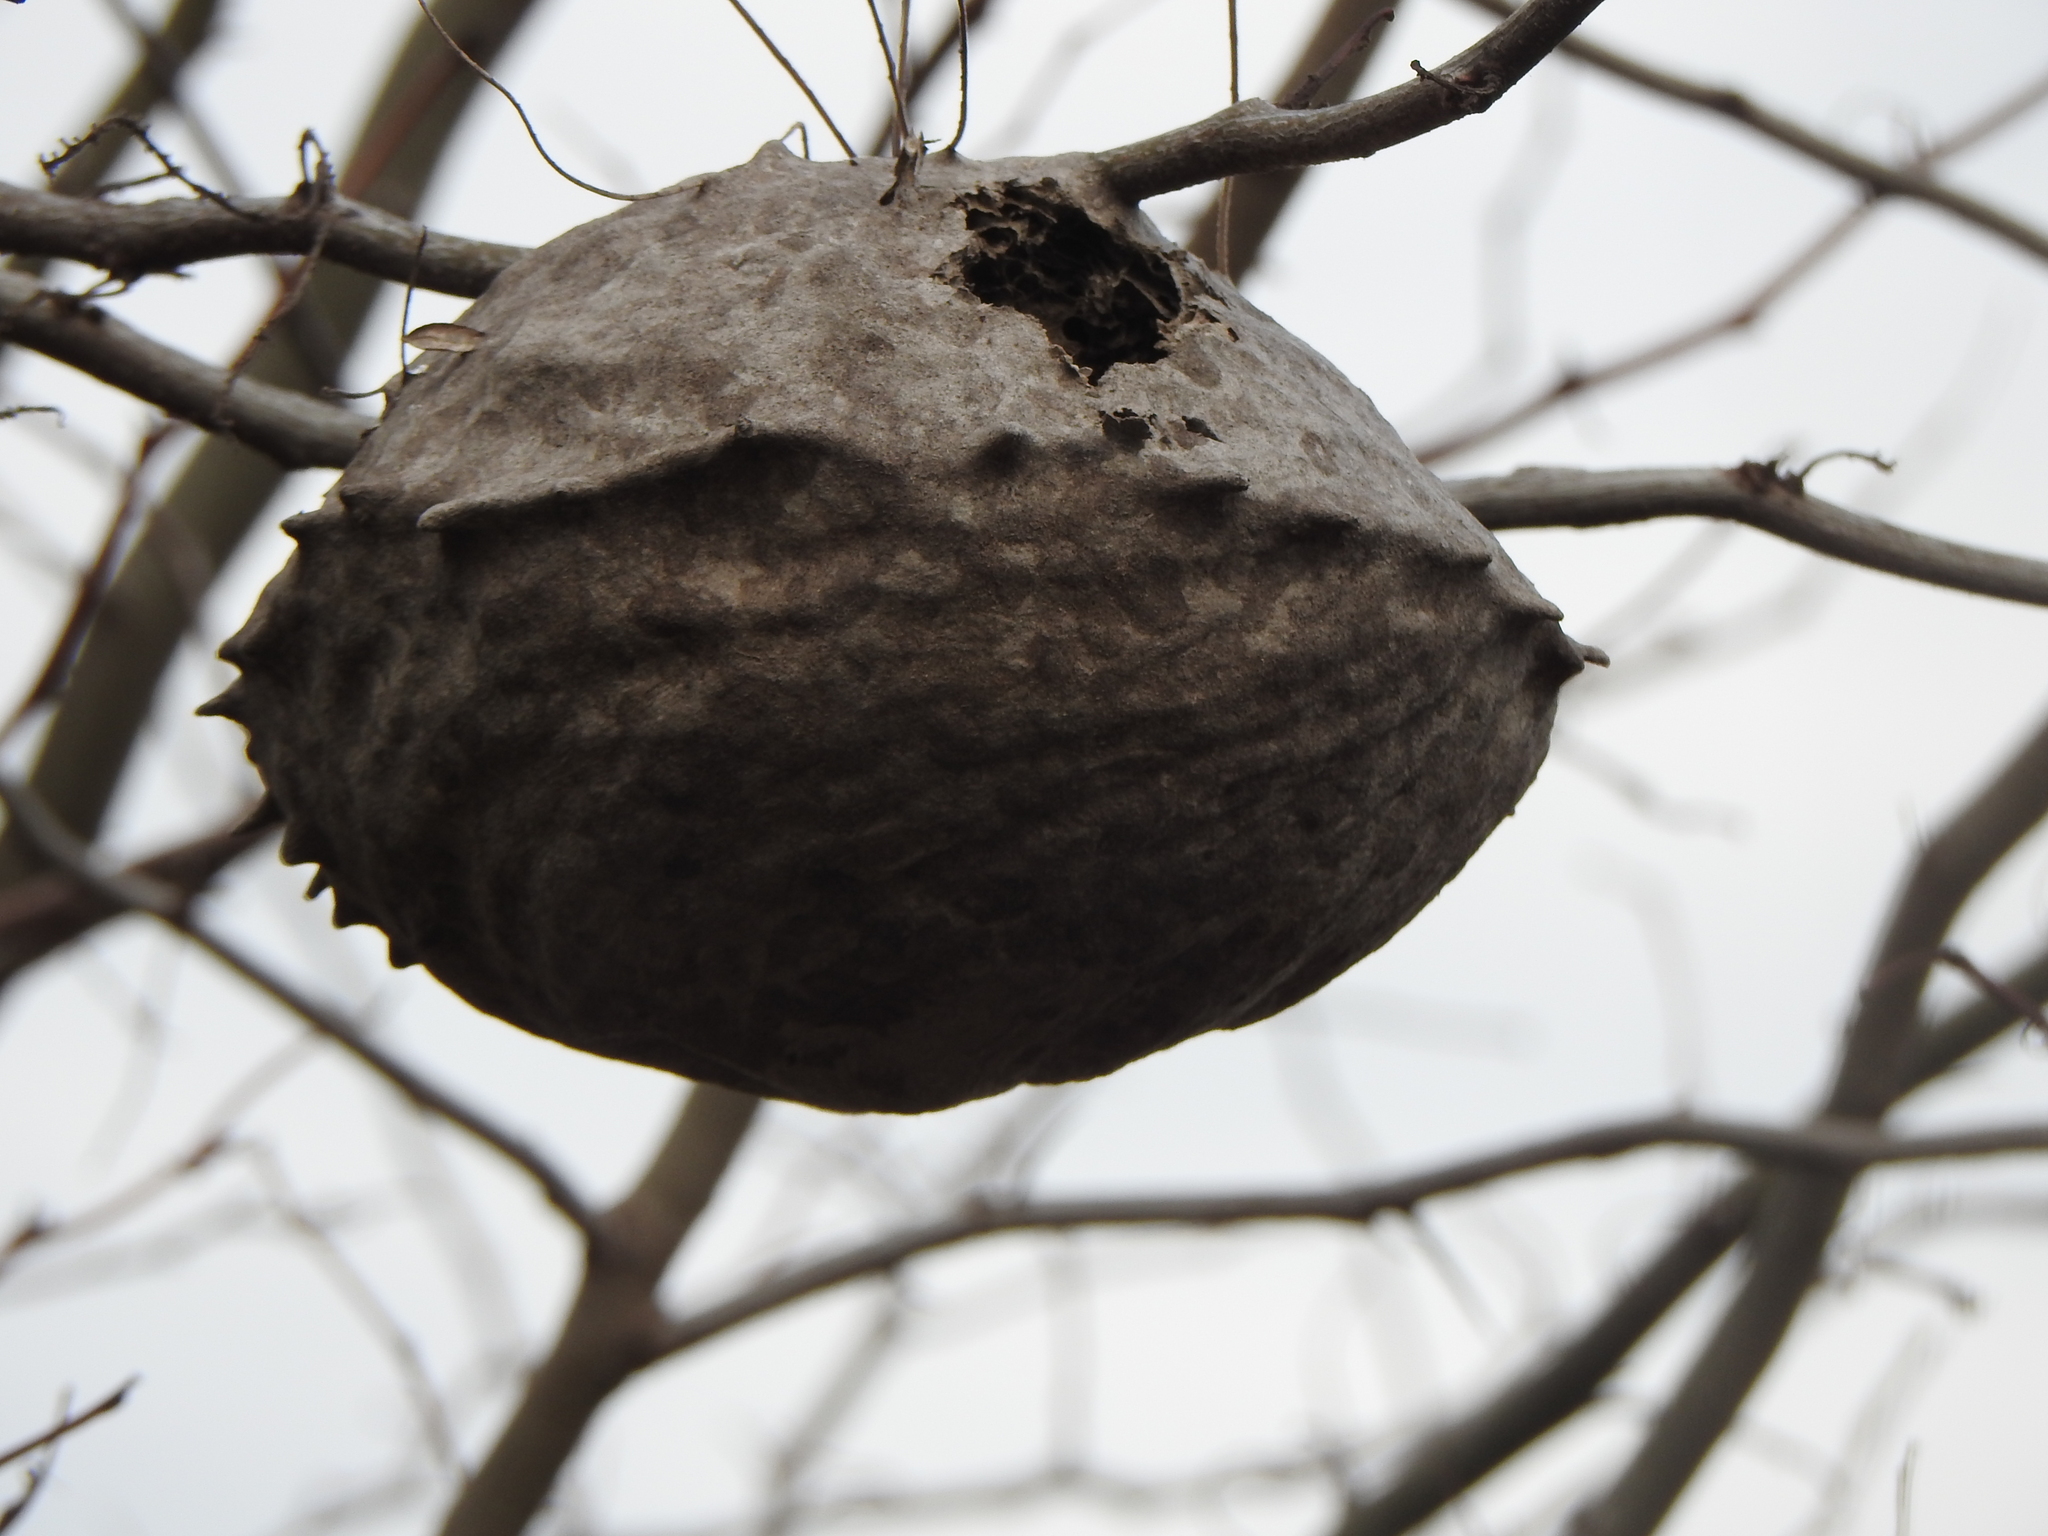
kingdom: Animalia
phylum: Arthropoda
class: Insecta
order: Hymenoptera
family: Eumenidae
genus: Polybia
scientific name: Polybia scutellaris
